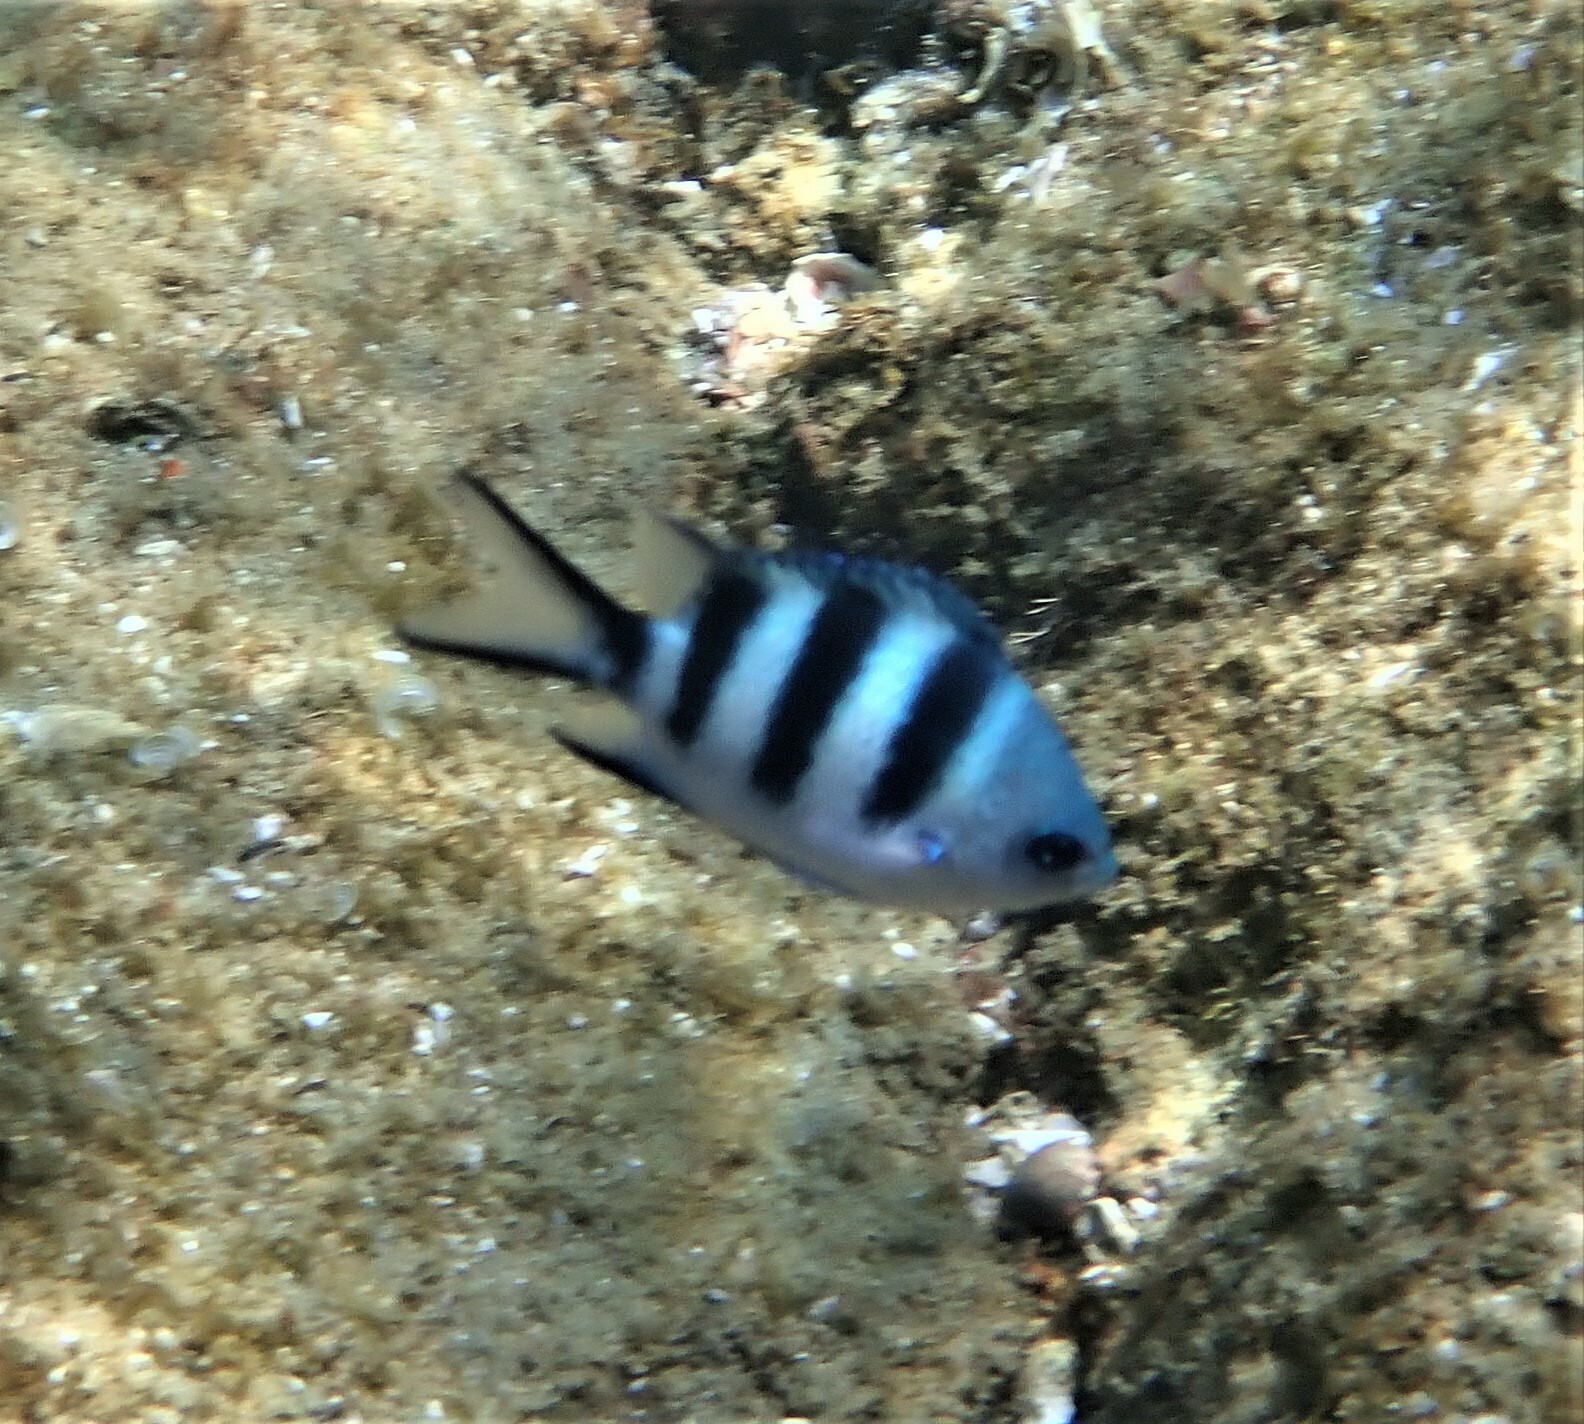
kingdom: Animalia
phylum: Chordata
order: Perciformes
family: Pomacentridae
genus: Abudefduf
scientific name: Abudefduf natalensis
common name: Natal sergeant
